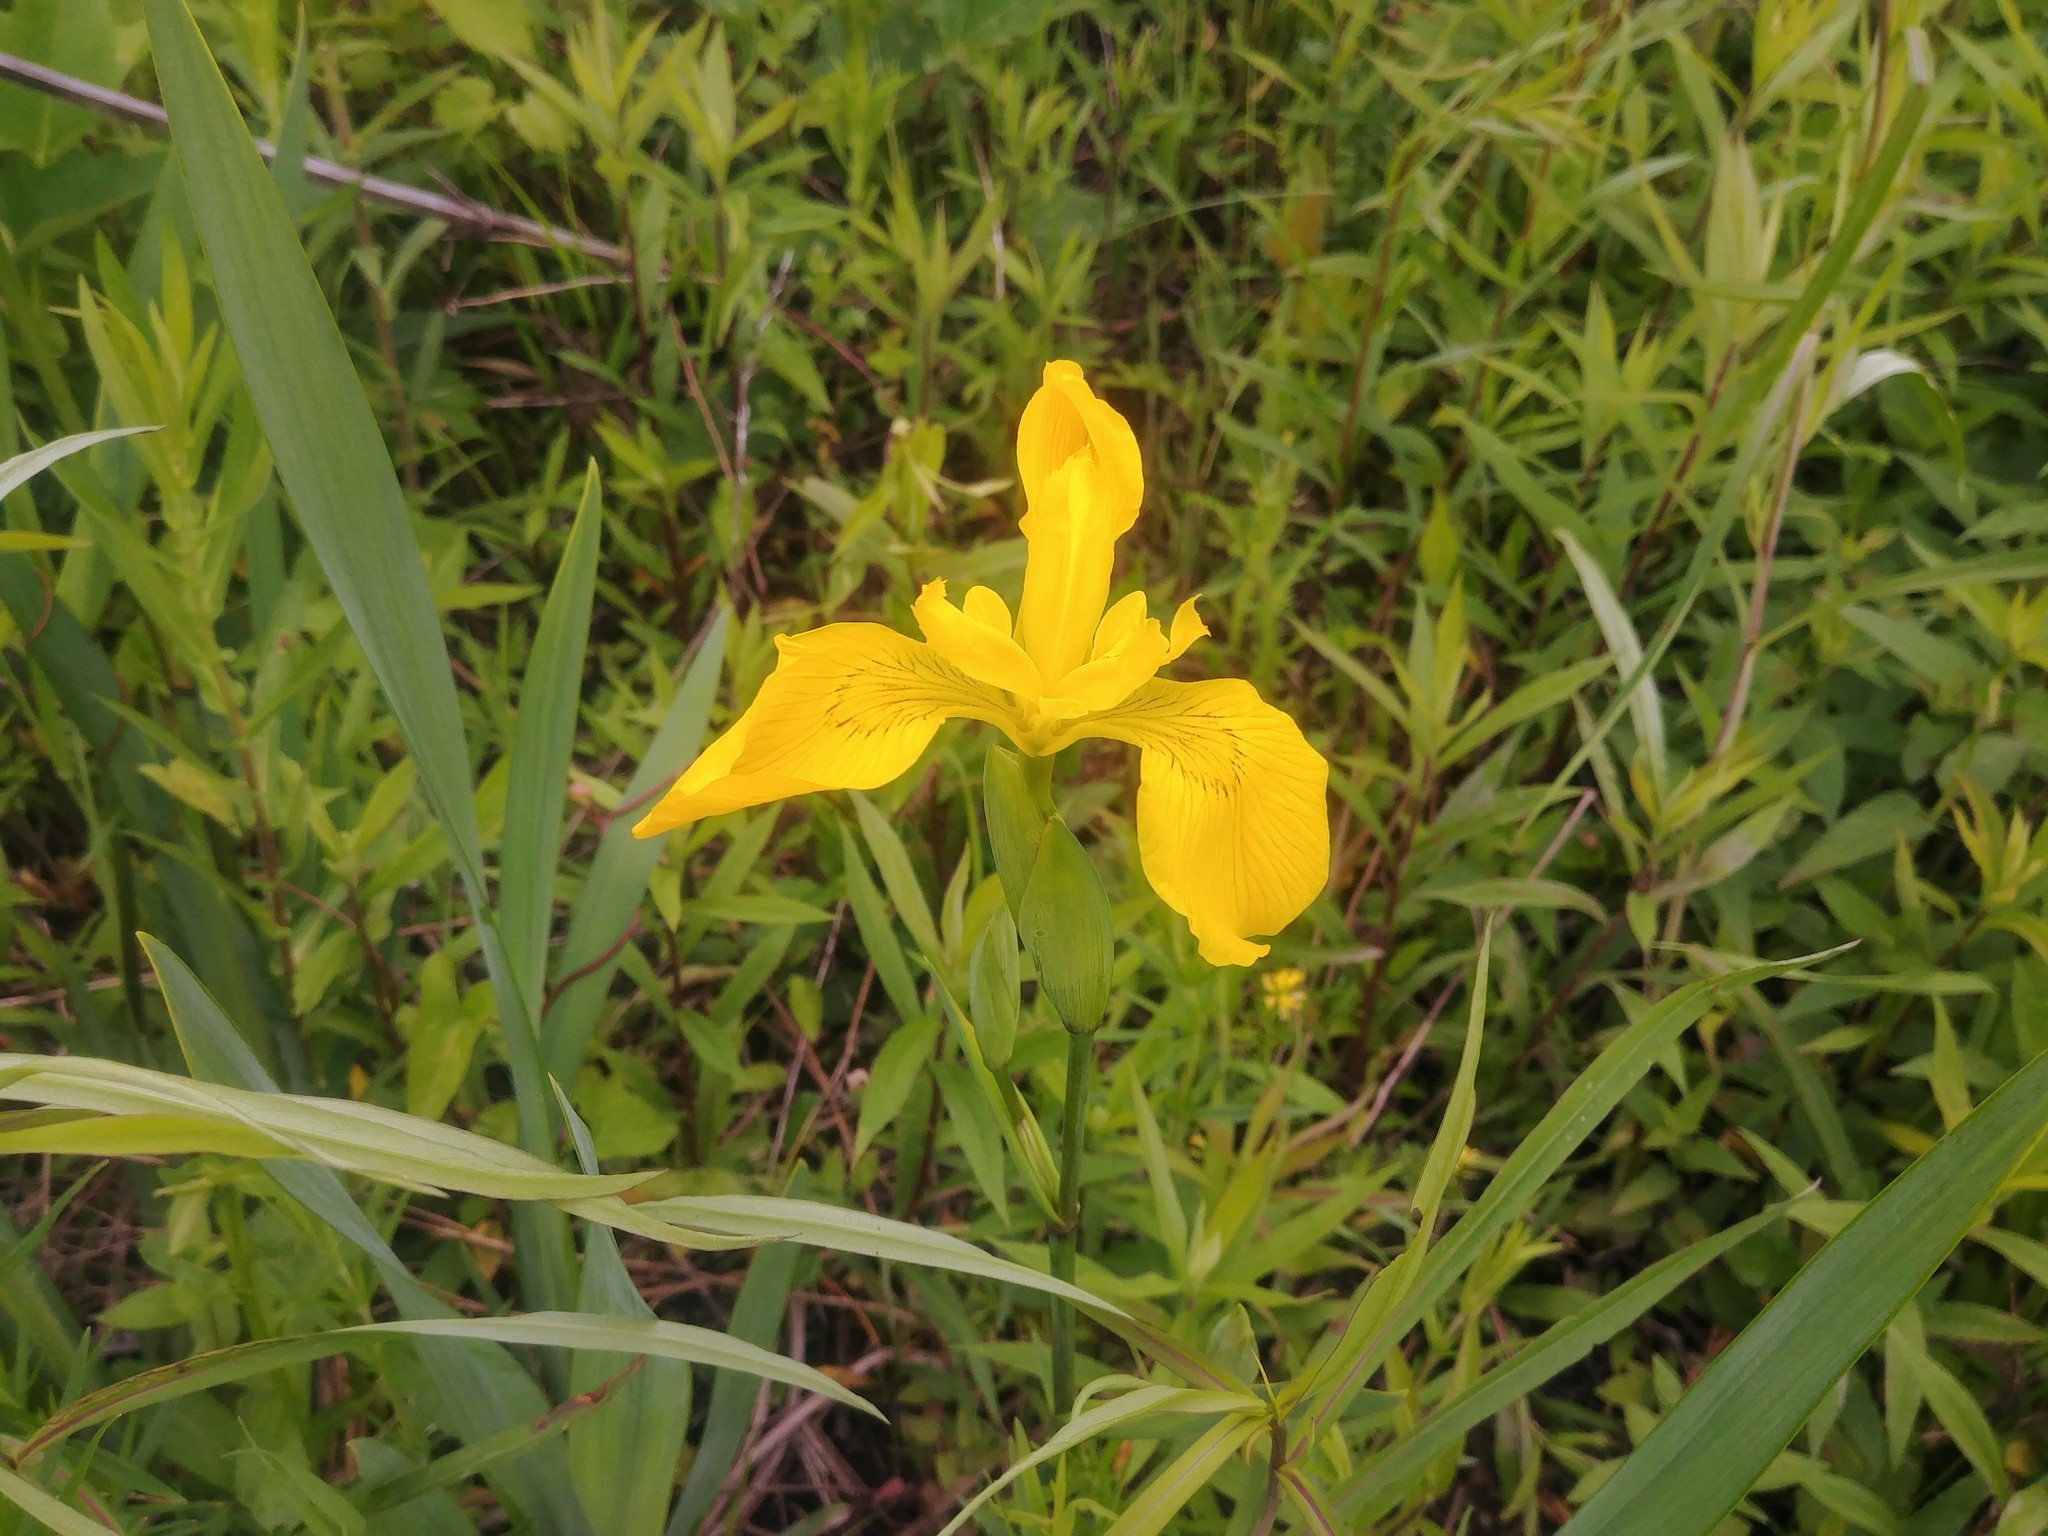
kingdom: Plantae
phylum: Tracheophyta
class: Liliopsida
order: Asparagales
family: Iridaceae
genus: Iris
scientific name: Iris pseudacorus
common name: Yellow flag
